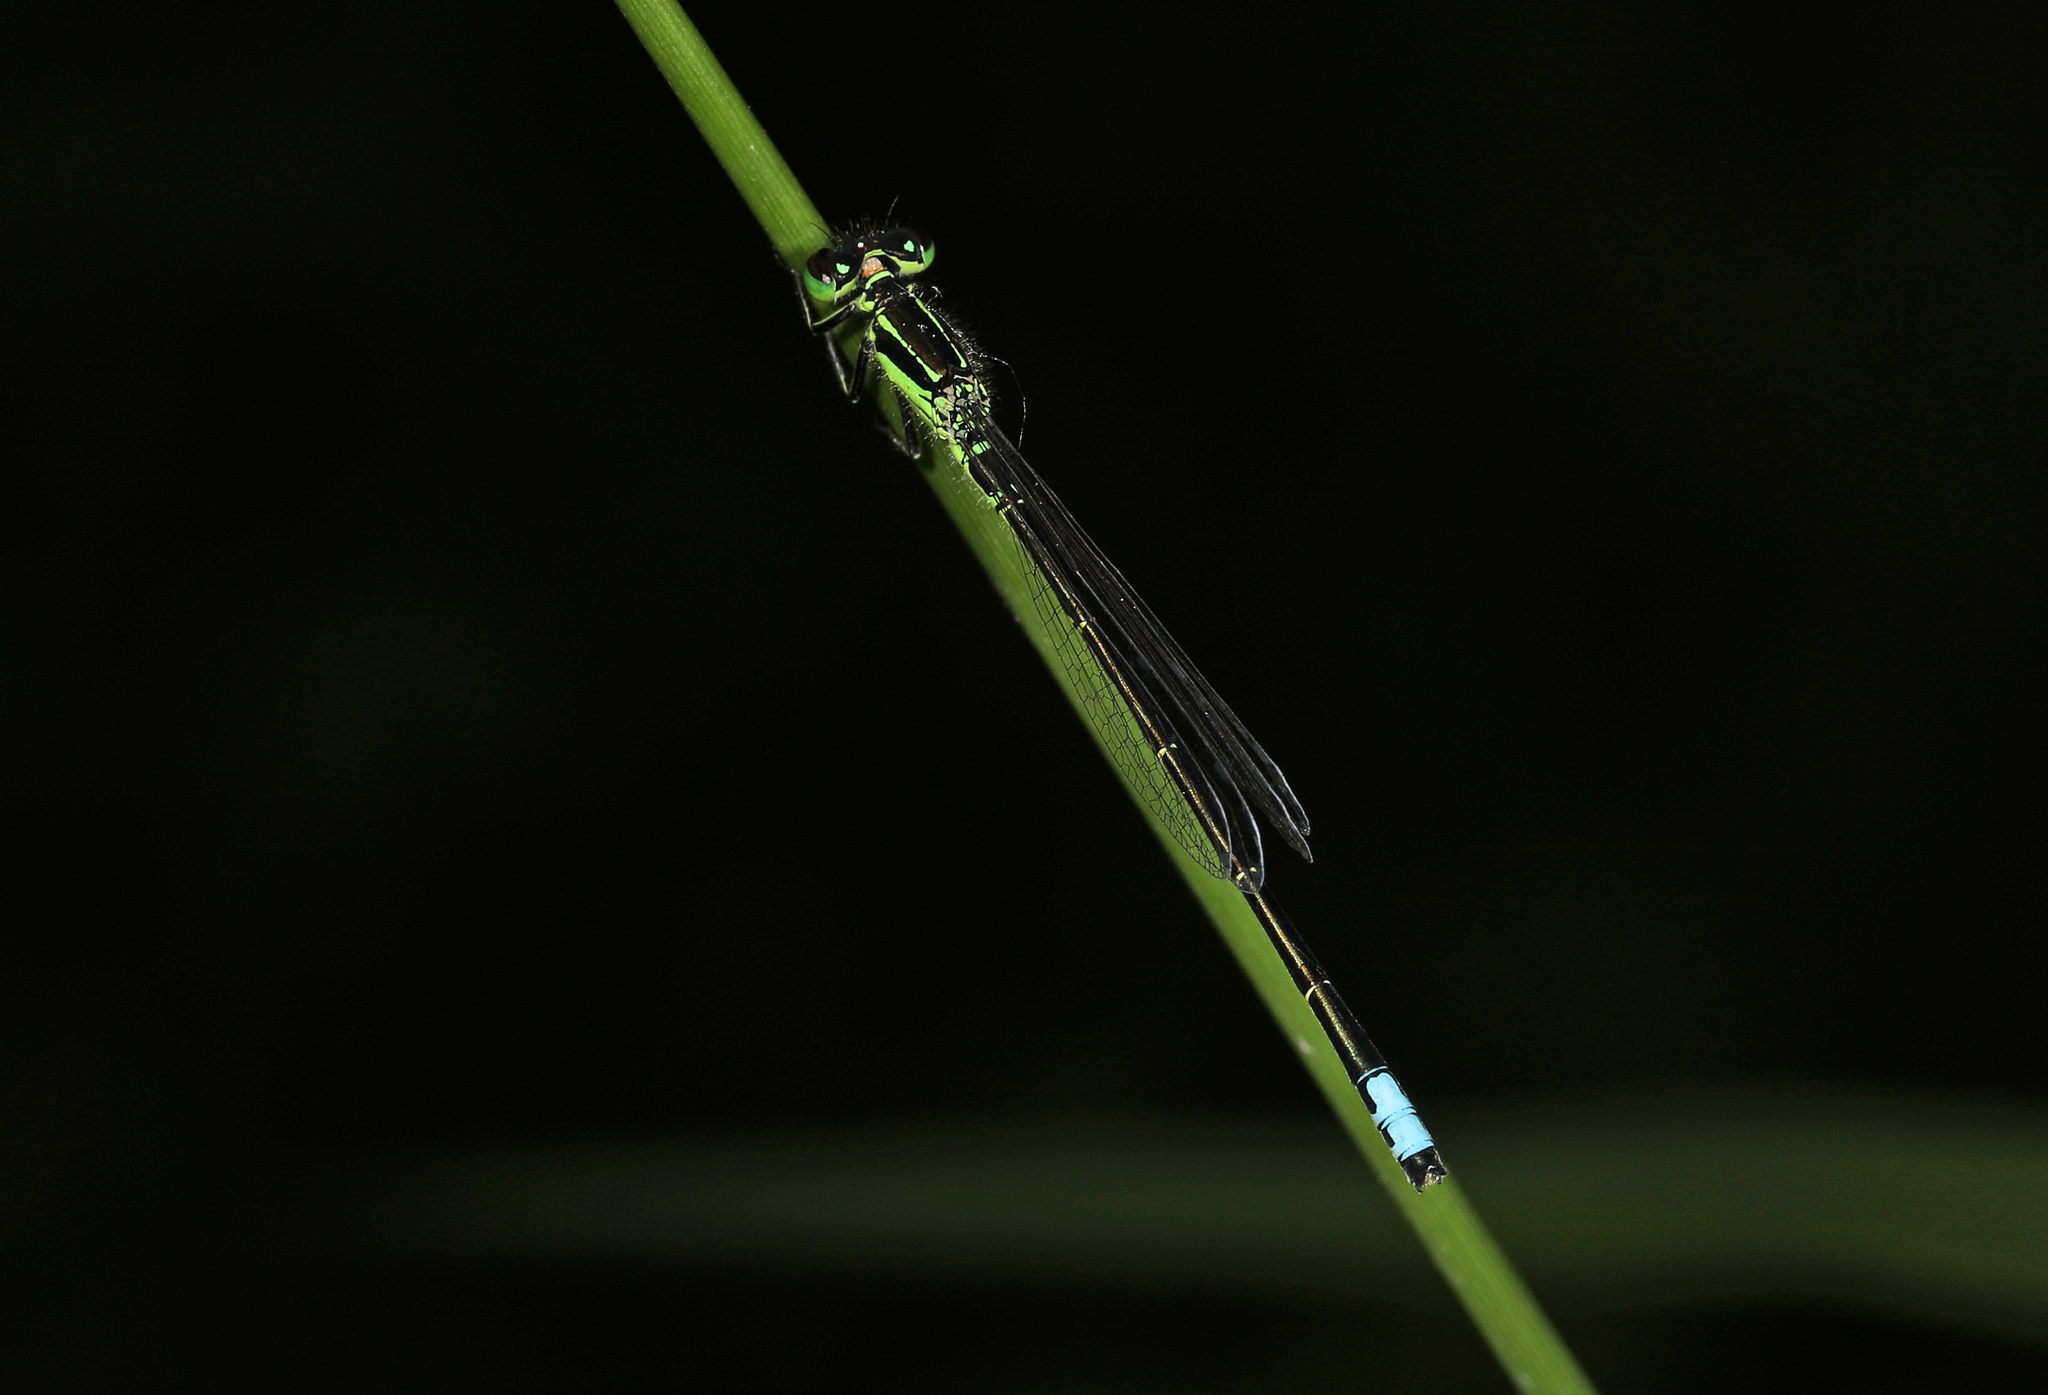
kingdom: Animalia
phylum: Arthropoda
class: Insecta
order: Odonata
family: Coenagrionidae
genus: Ischnura
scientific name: Ischnura verticalis
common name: Eastern forktail
